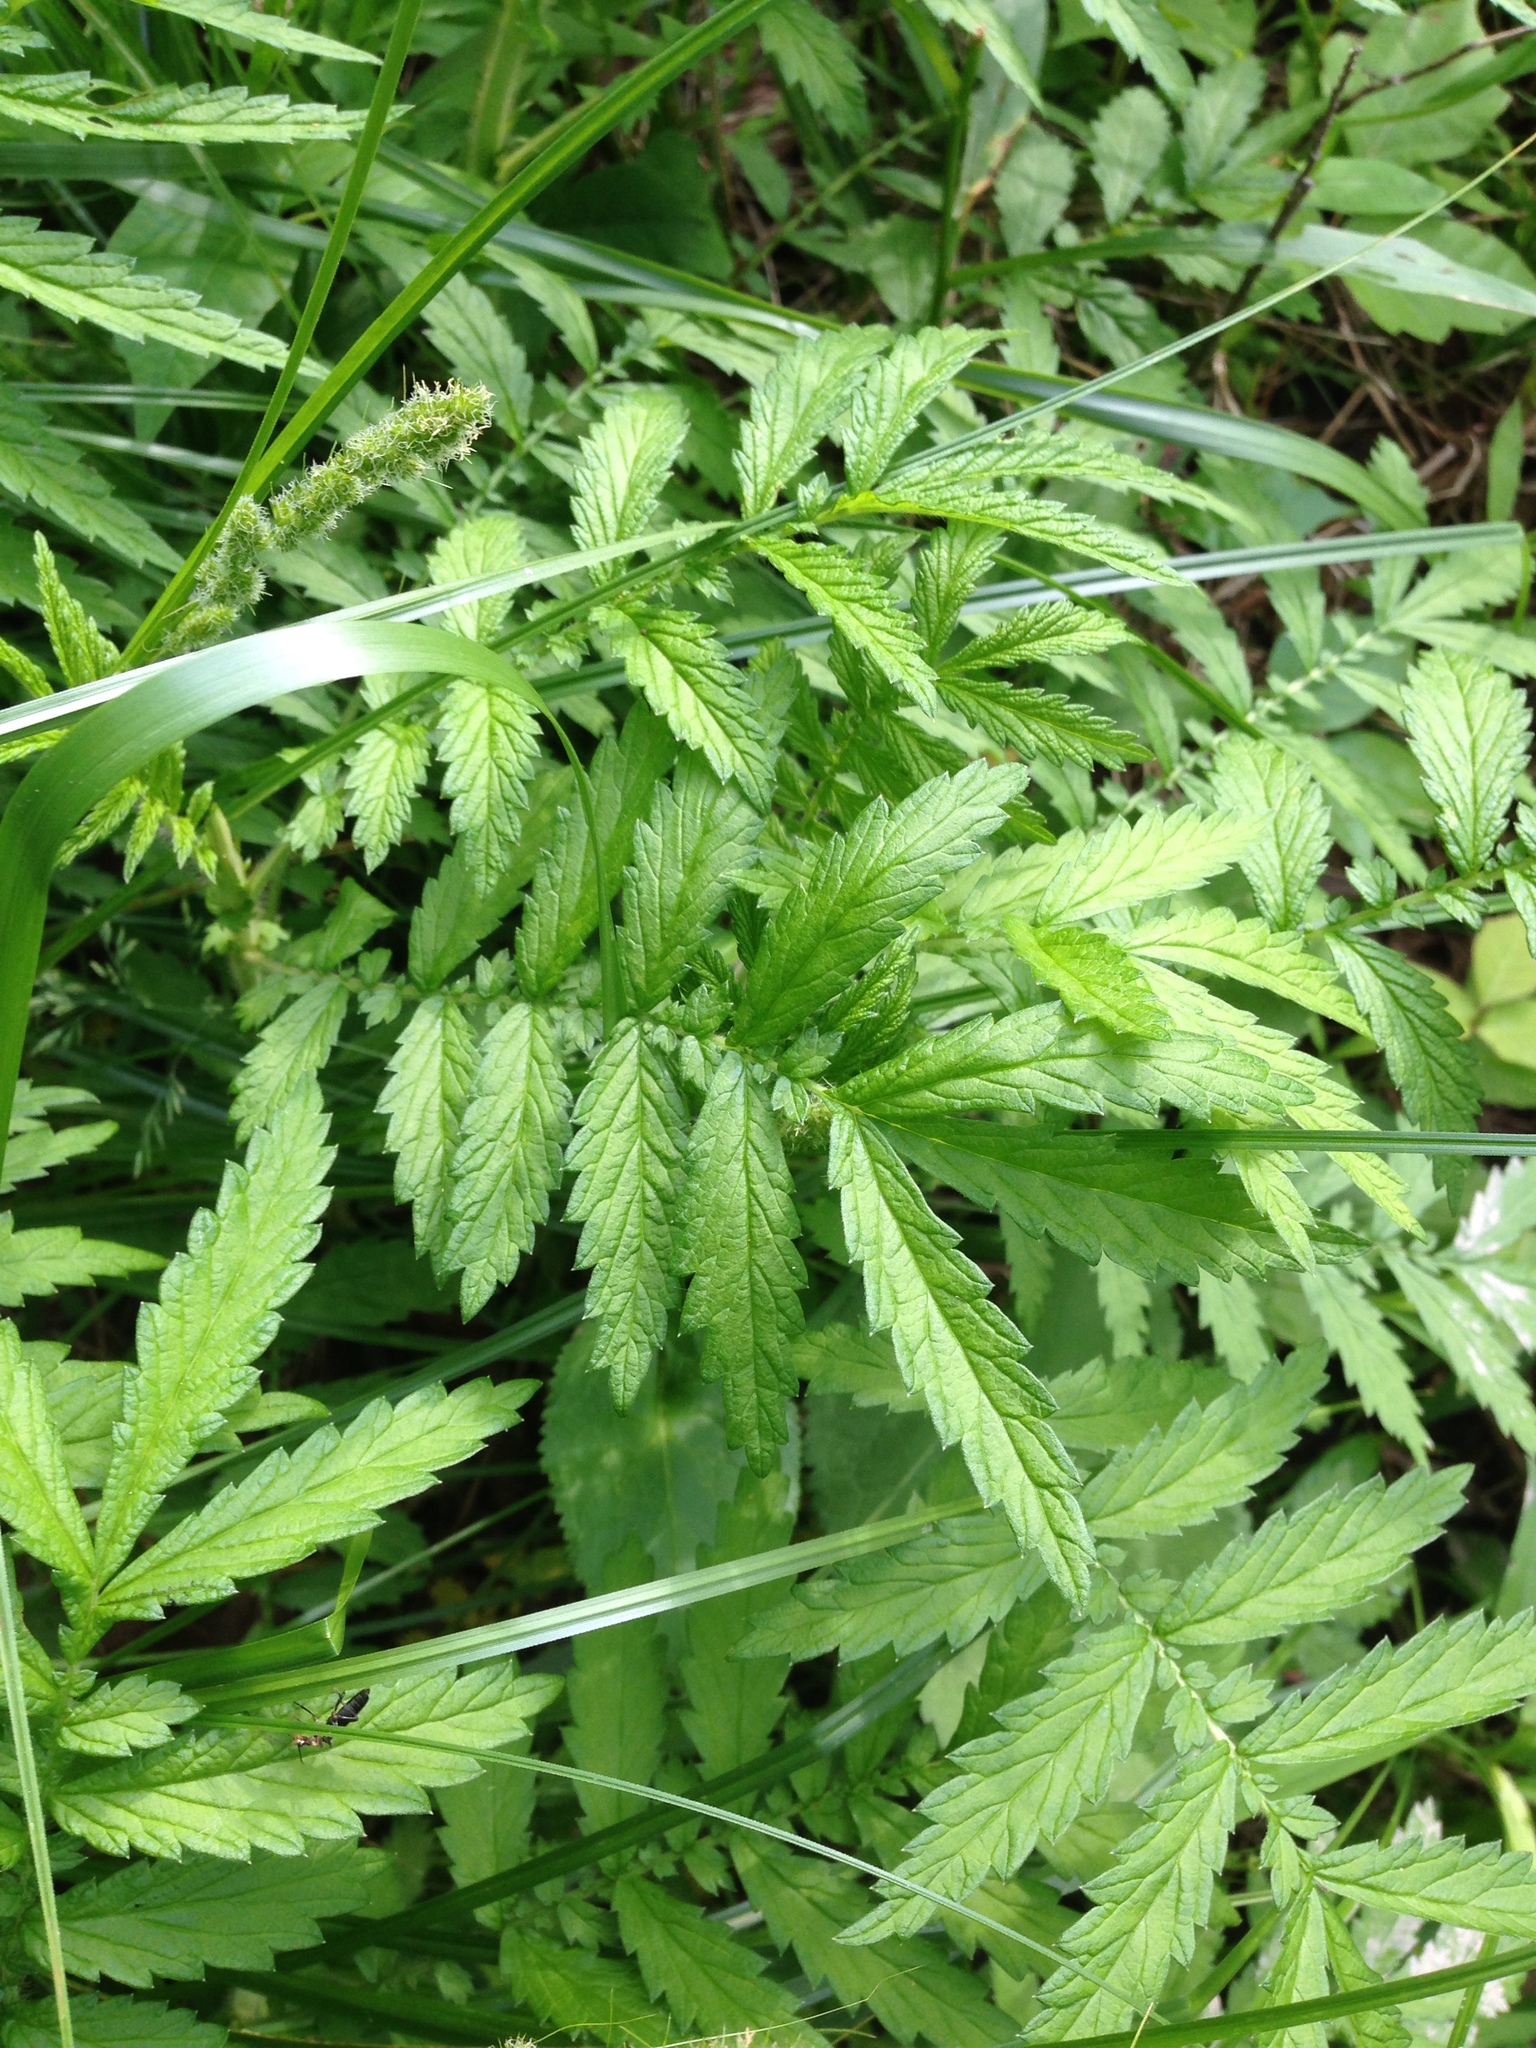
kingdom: Plantae
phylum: Tracheophyta
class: Magnoliopsida
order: Rosales
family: Rosaceae
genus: Agrimonia
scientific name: Agrimonia parviflora
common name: Harvest-lice
